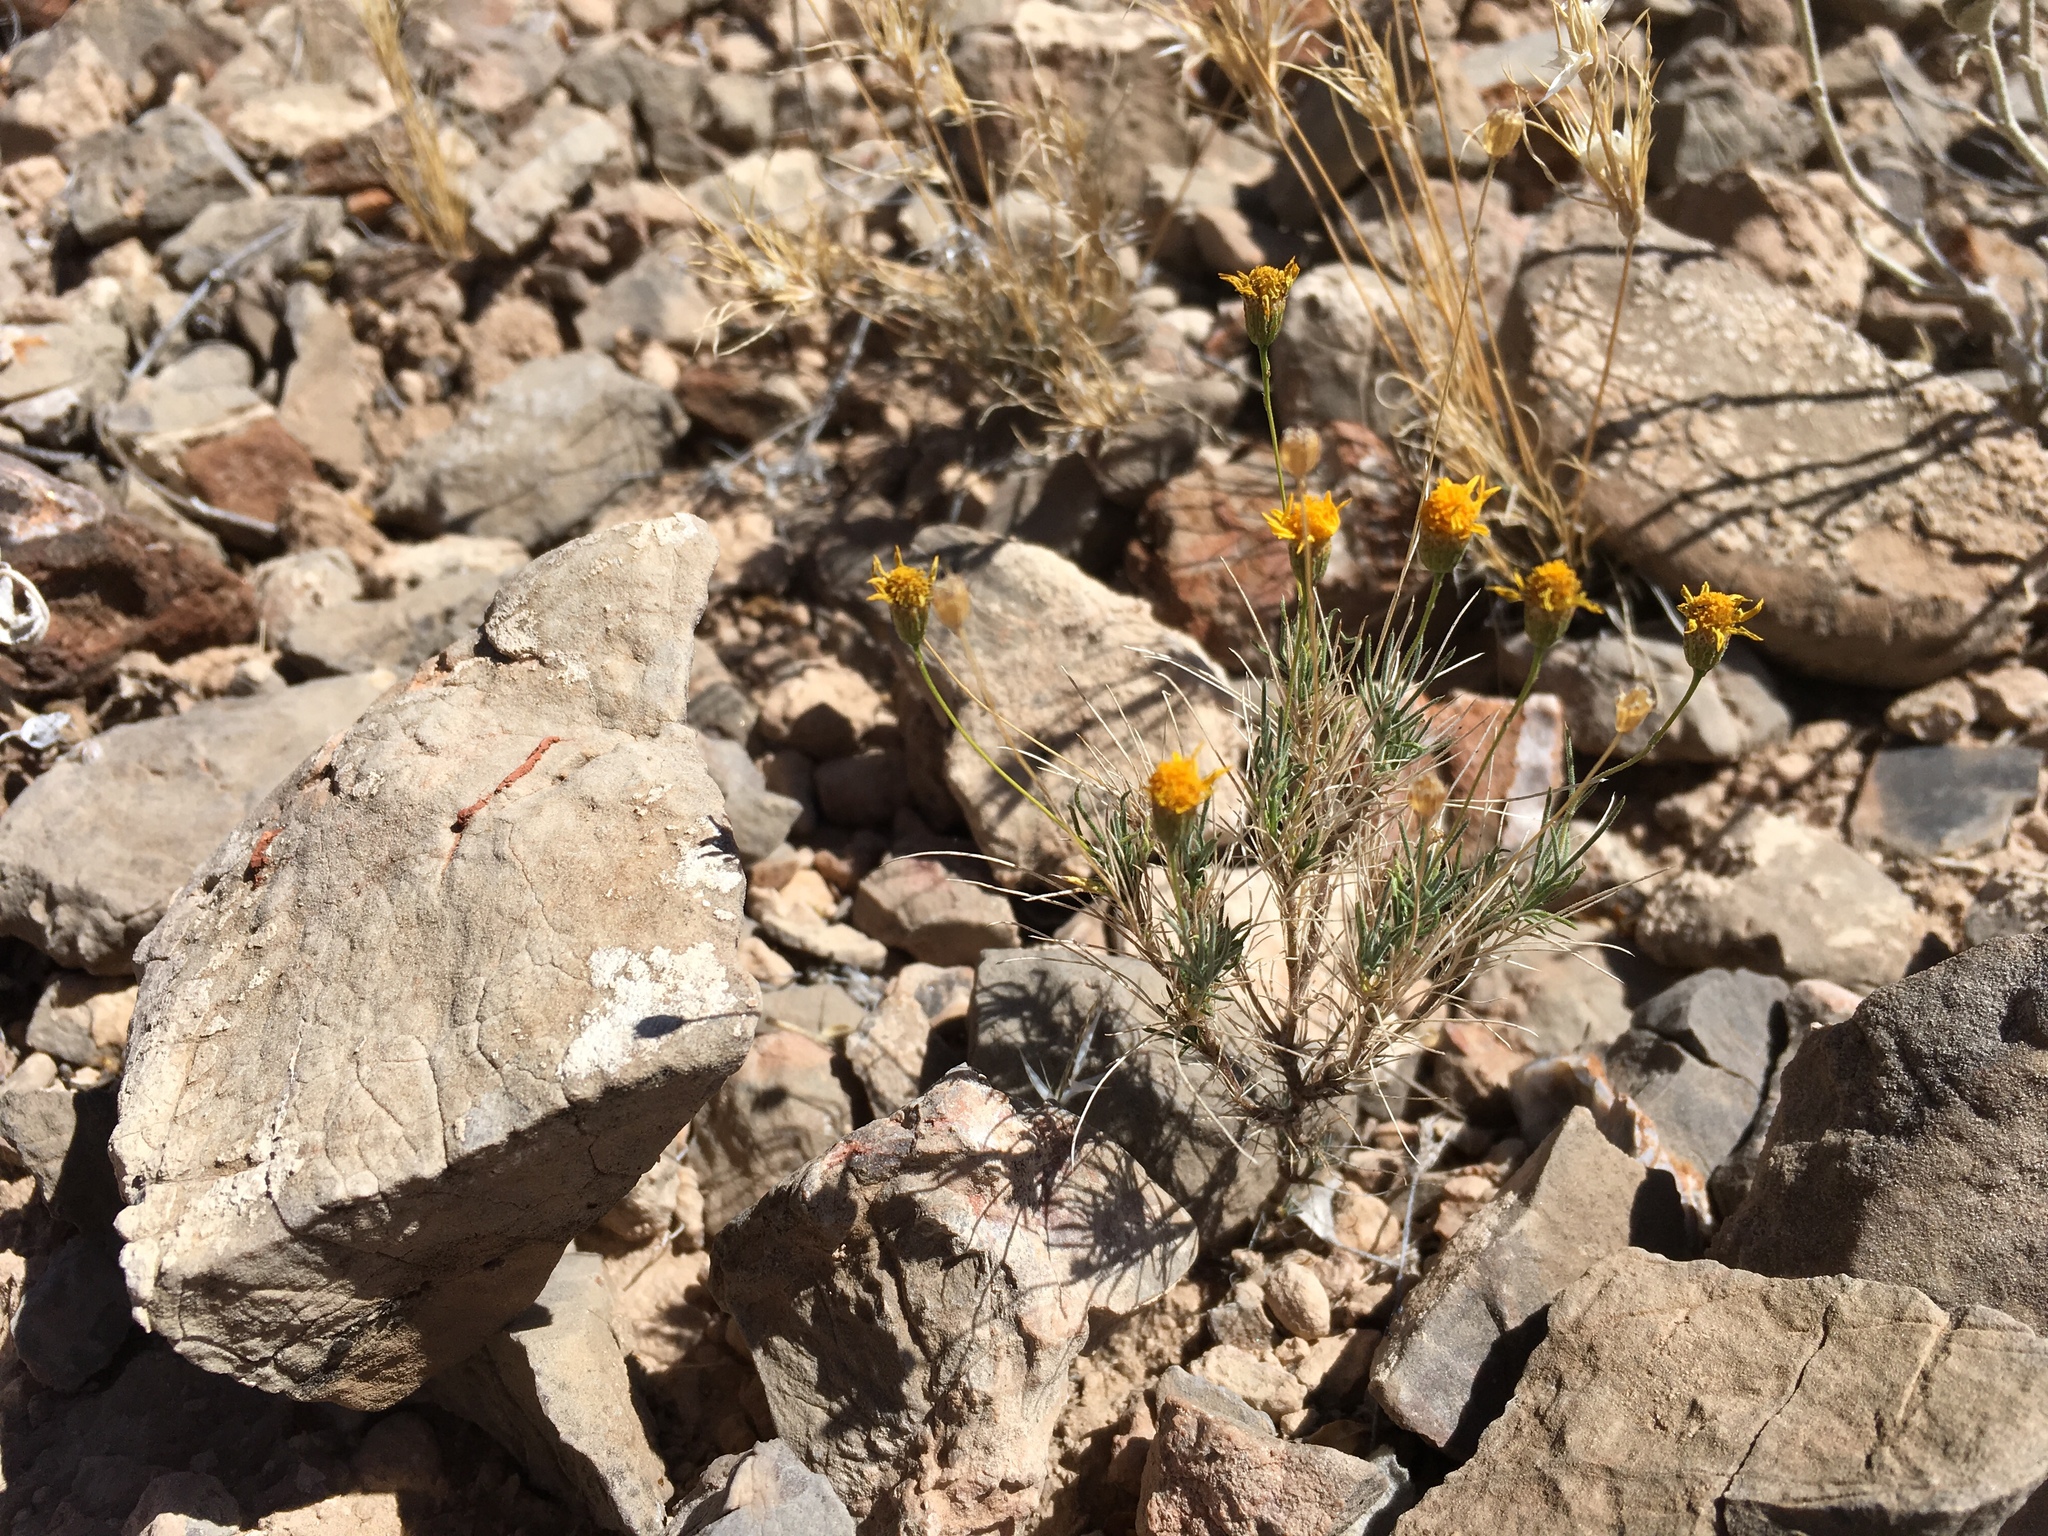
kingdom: Plantae
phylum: Tracheophyta
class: Magnoliopsida
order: Asterales
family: Asteraceae
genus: Thymophylla
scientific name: Thymophylla pentachaeta
